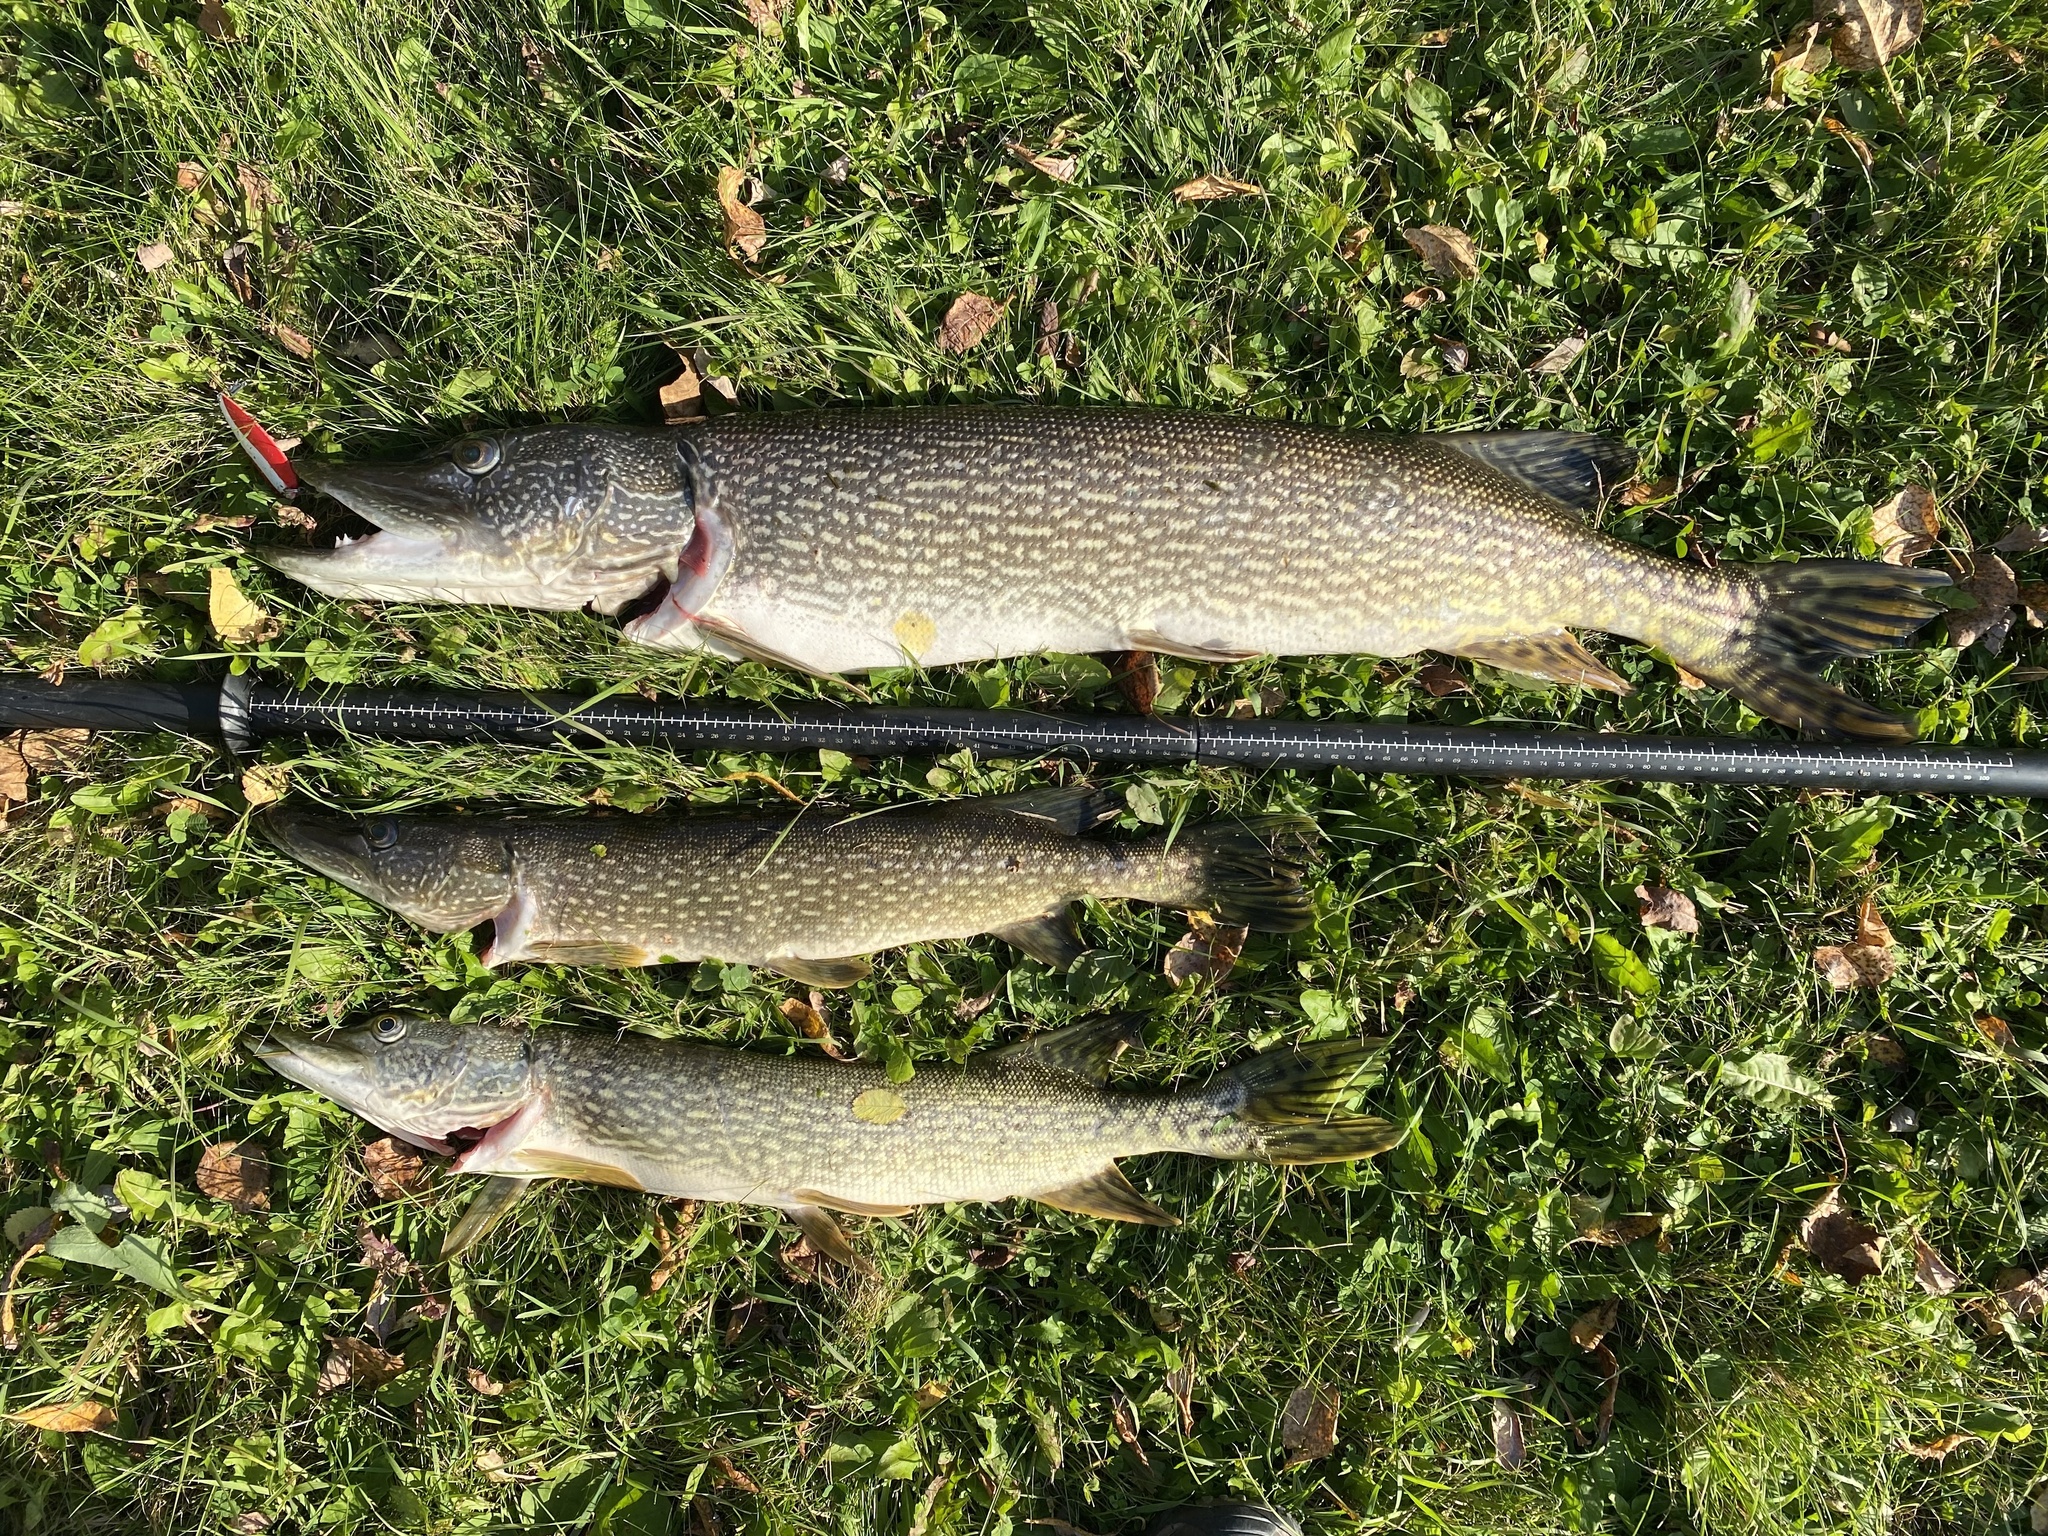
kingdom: Animalia
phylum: Chordata
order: Esociformes
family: Esocidae
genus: Esox
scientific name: Esox lucius
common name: Northern pike
